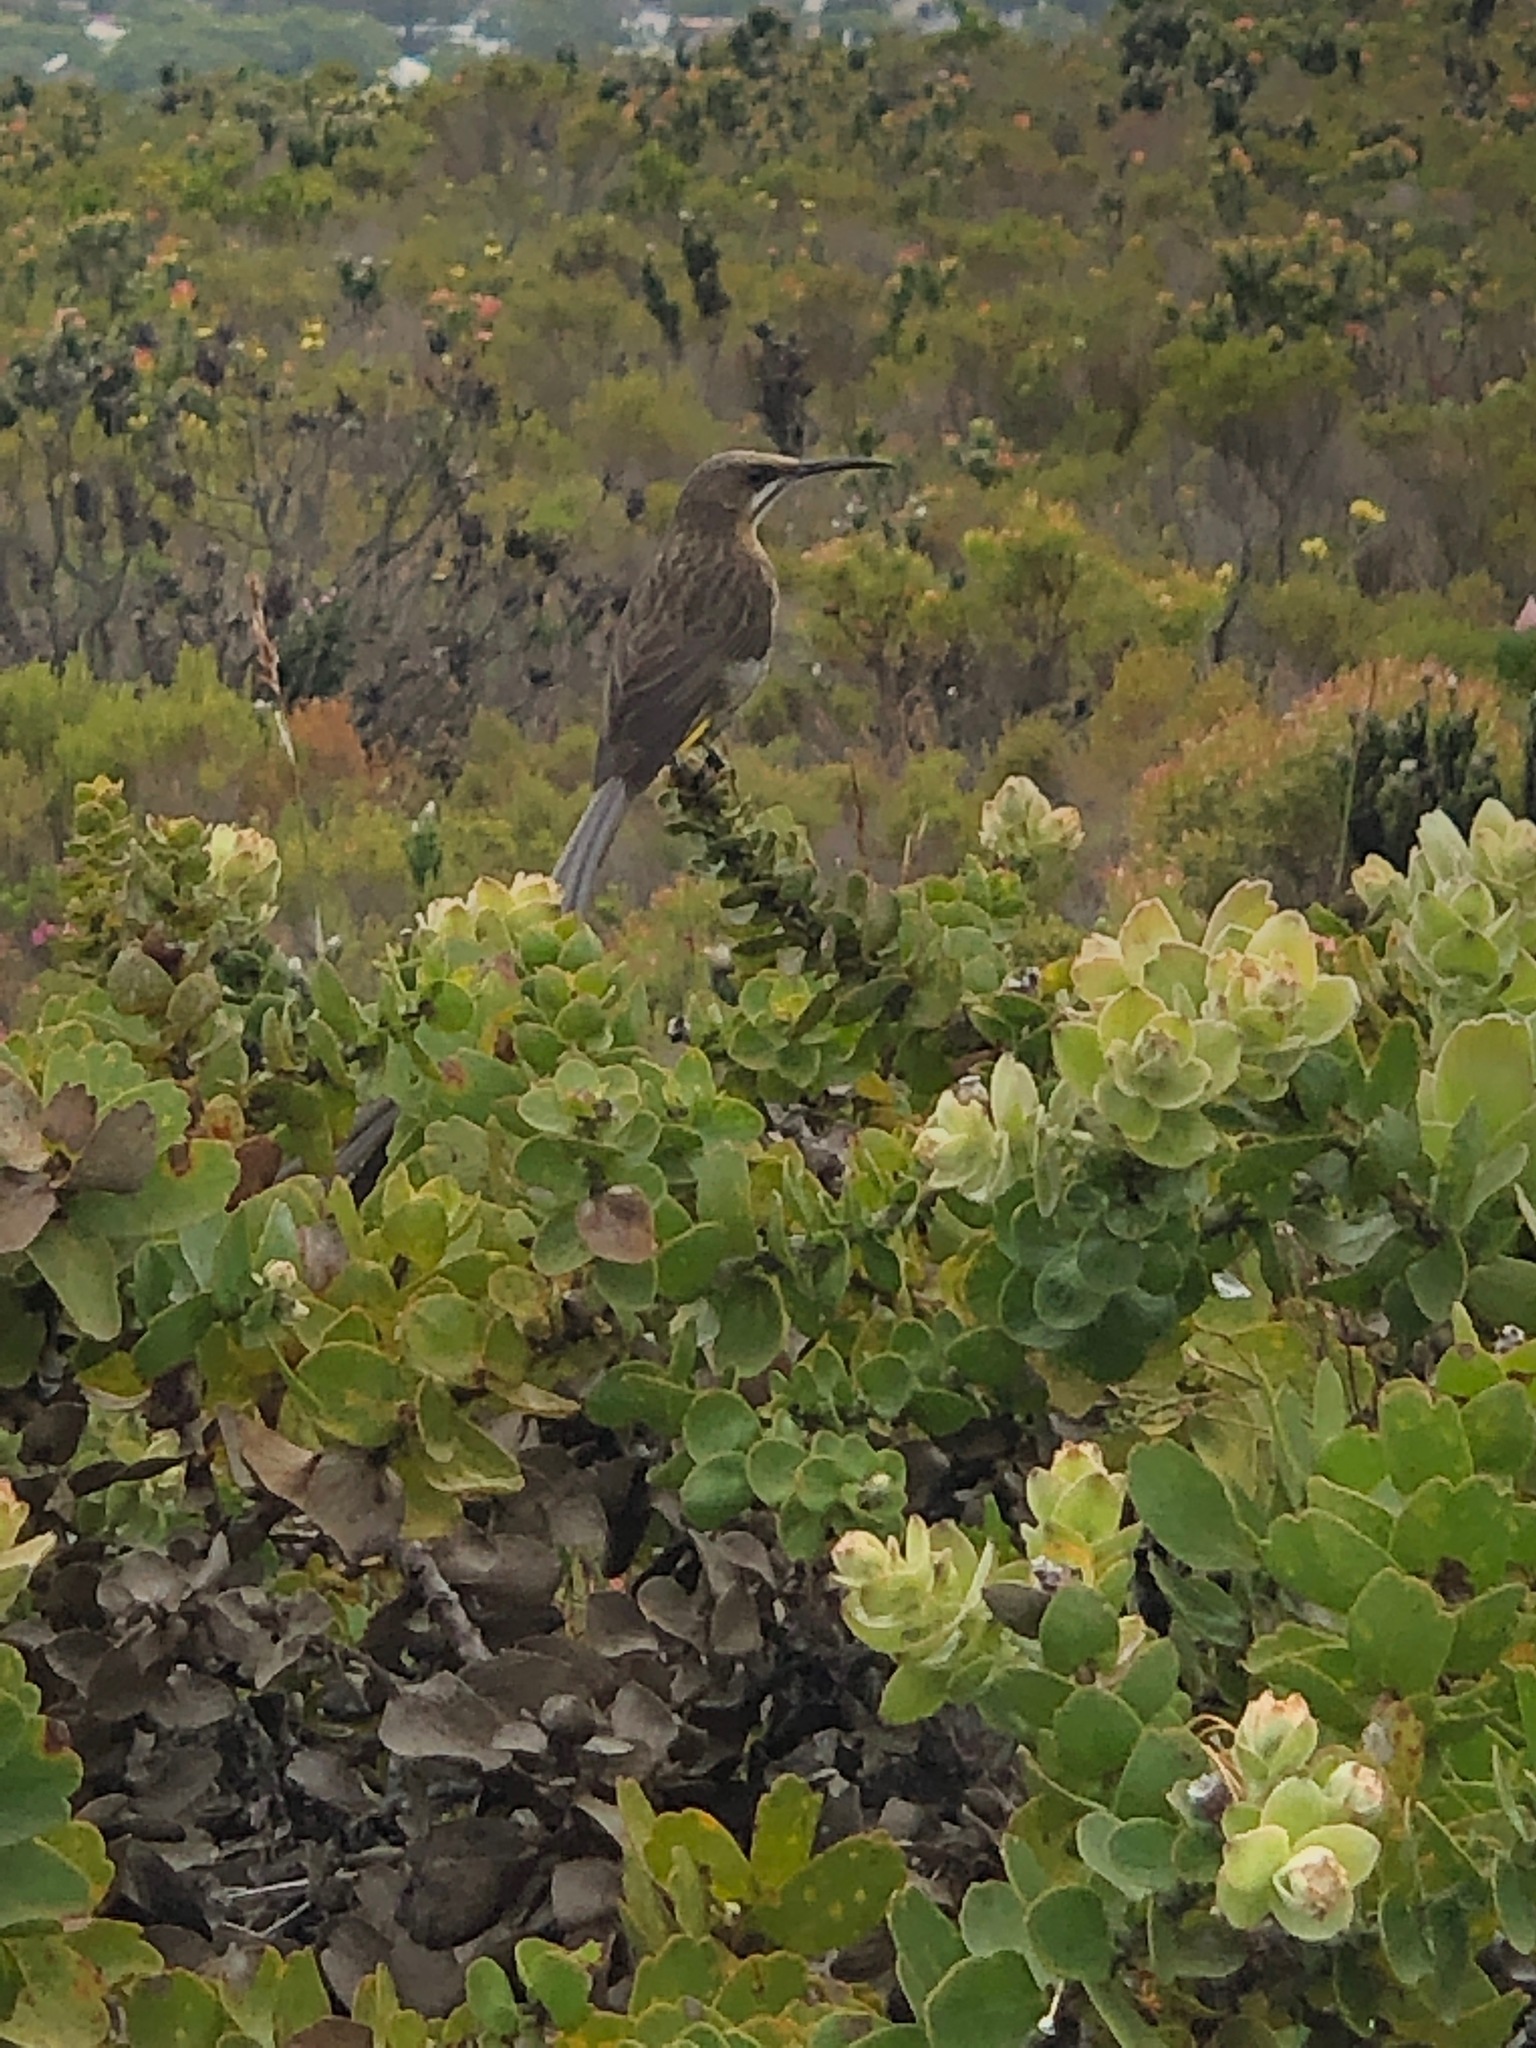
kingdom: Plantae
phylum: Tracheophyta
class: Magnoliopsida
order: Proteales
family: Proteaceae
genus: Leucospermum
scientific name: Leucospermum cordifolium
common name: Red pincushion-protea
